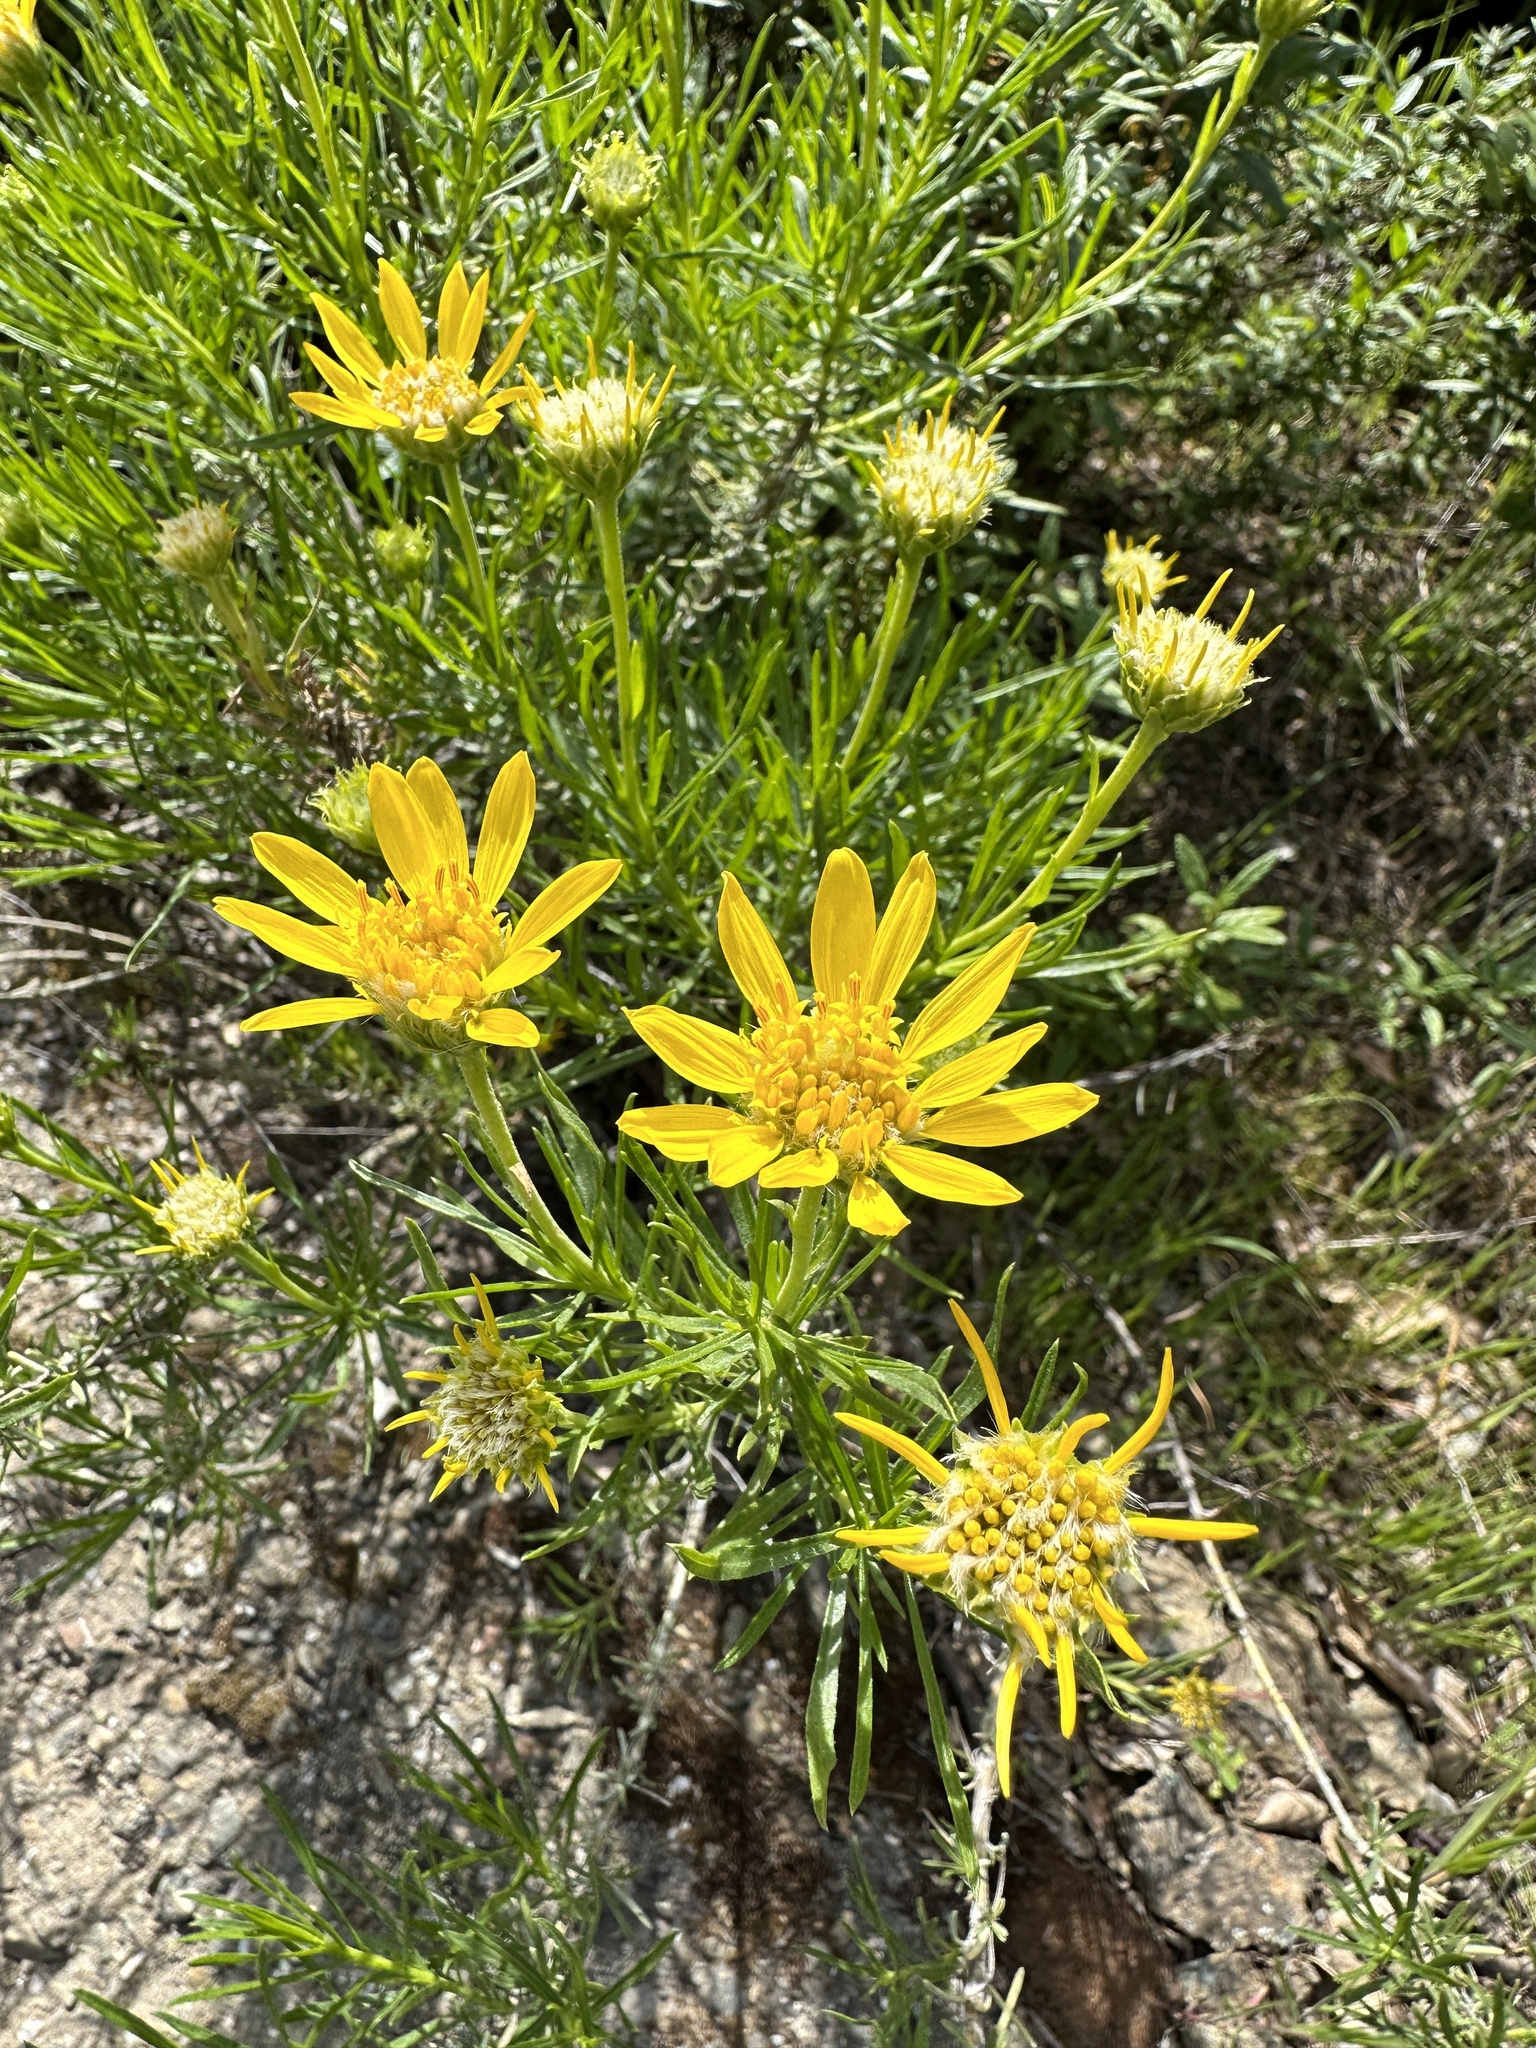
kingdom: Plantae
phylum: Tracheophyta
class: Magnoliopsida
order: Asterales
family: Asteraceae
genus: Ericameria
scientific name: Ericameria linearifolia
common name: Interior goldenbush
